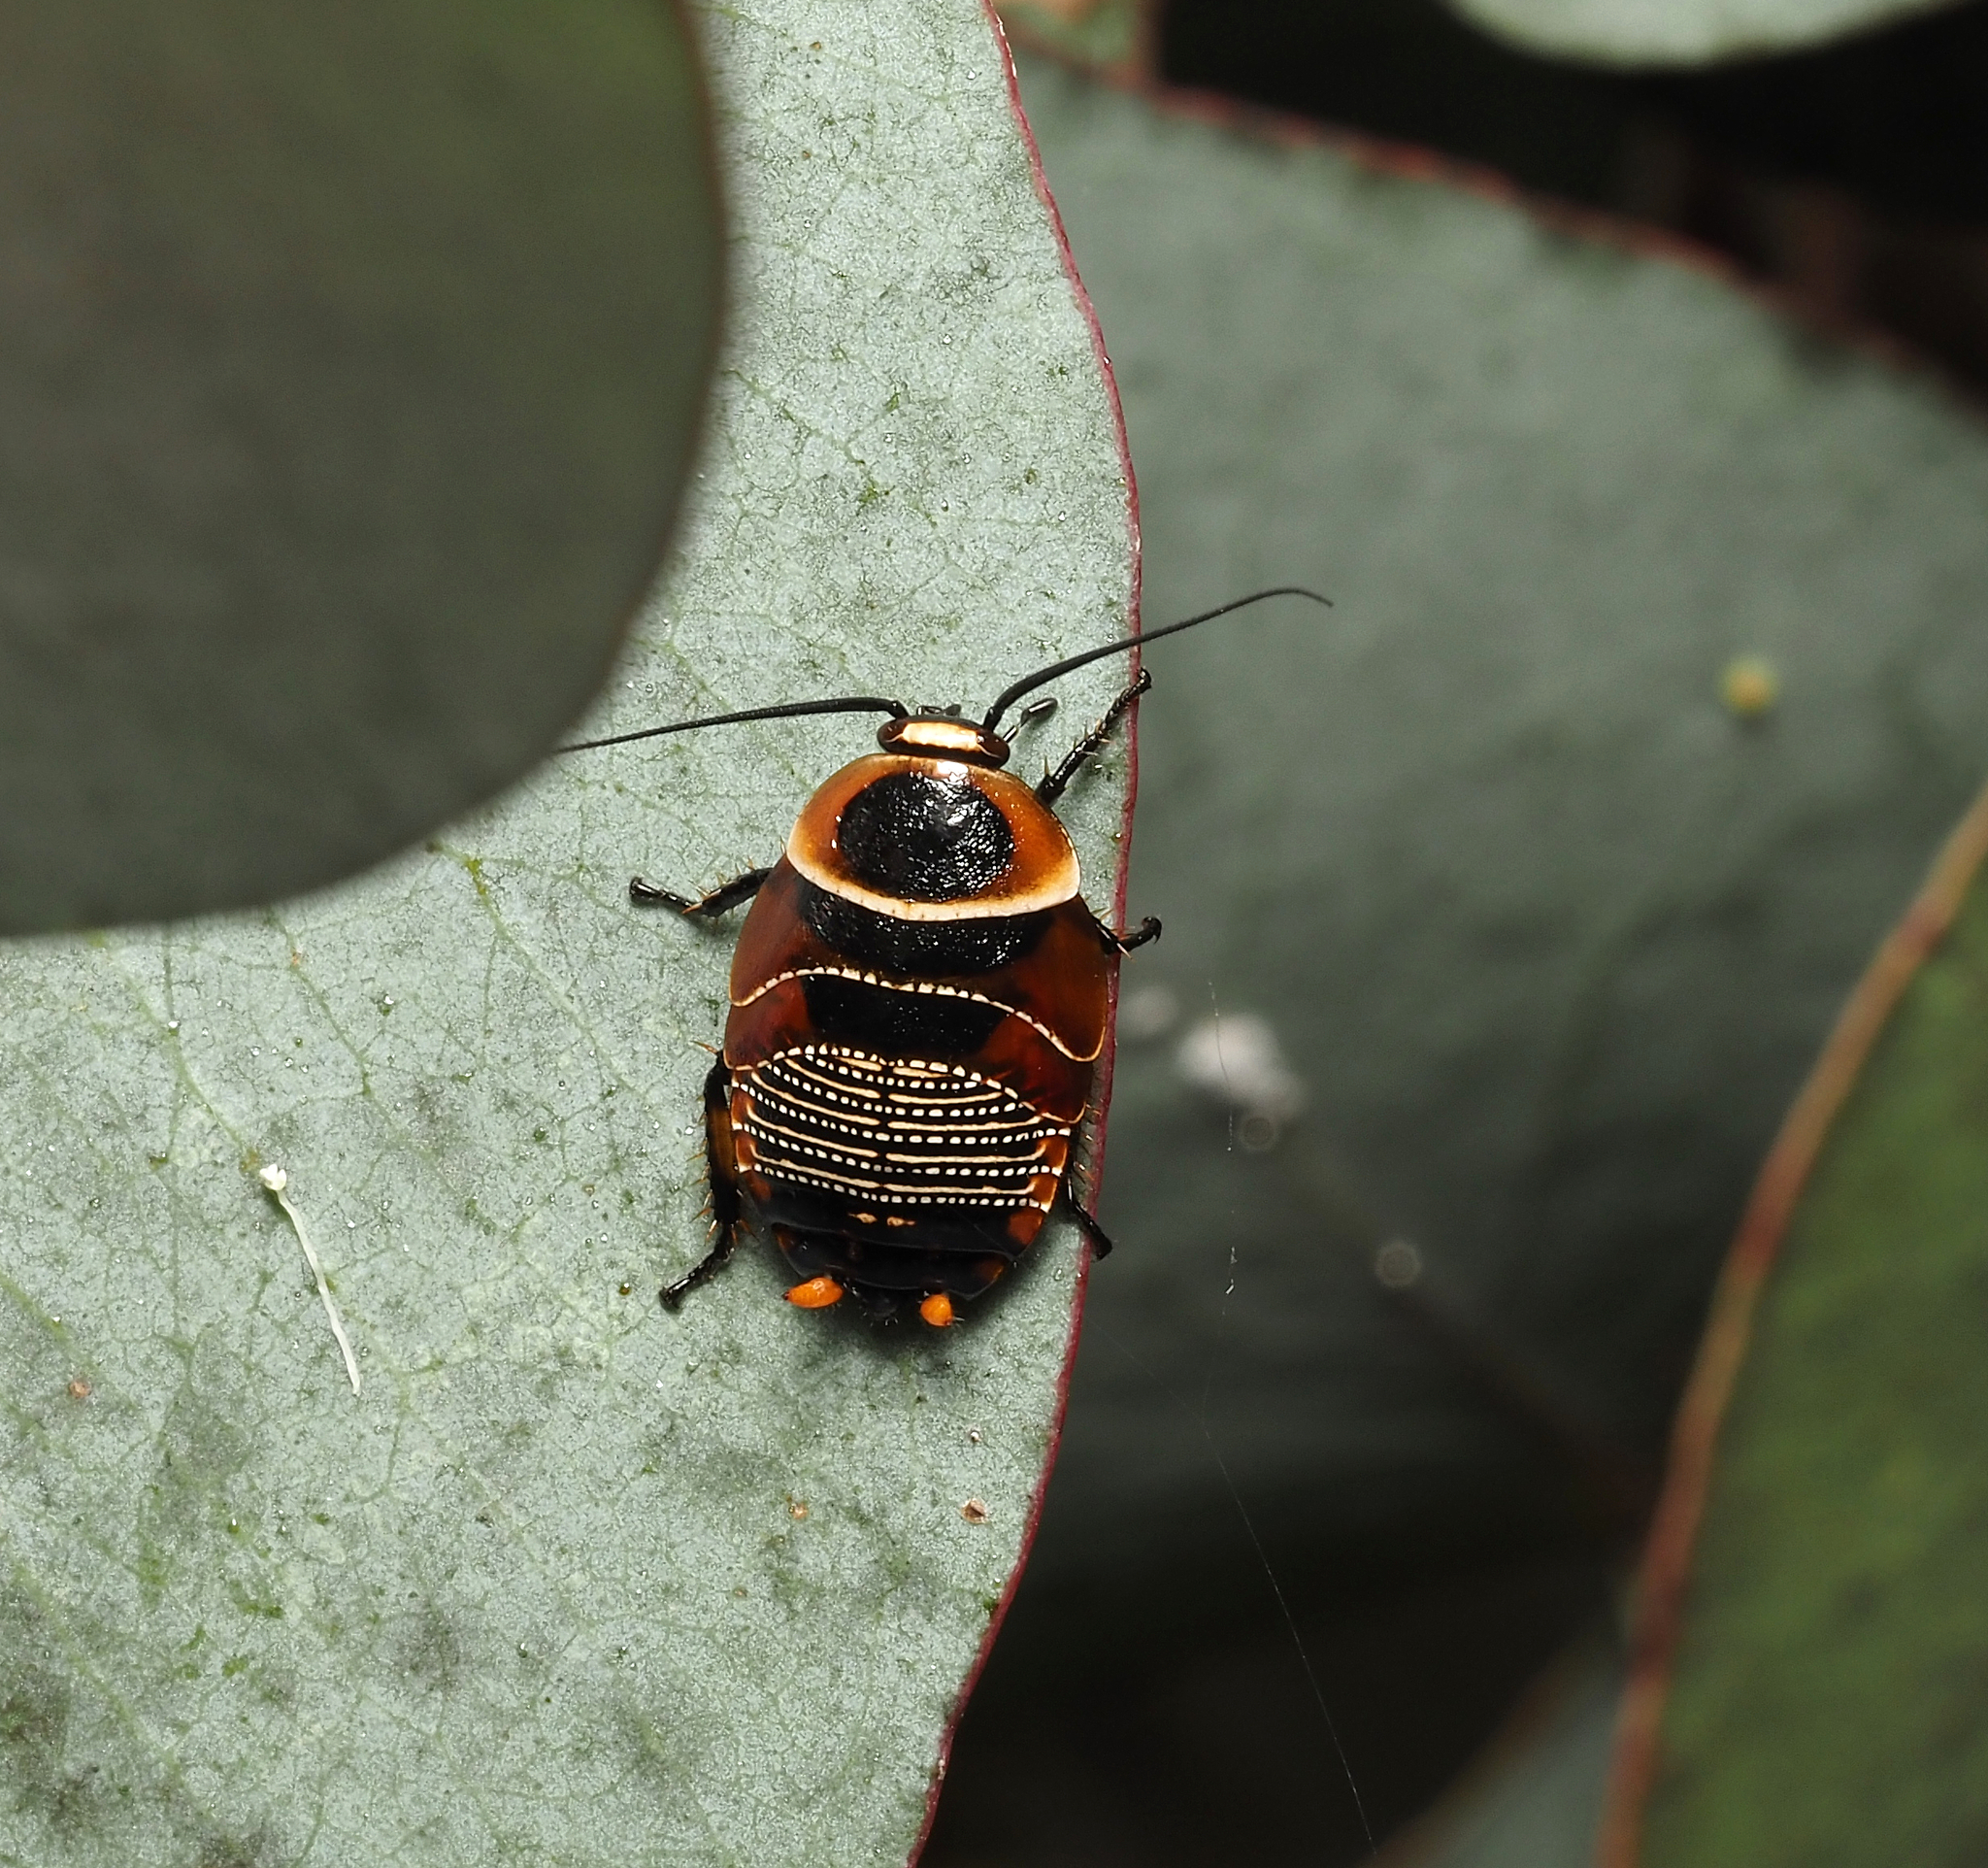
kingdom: Animalia
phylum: Arthropoda
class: Insecta
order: Blattodea
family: Ectobiidae
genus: Ellipsidion
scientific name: Ellipsidion australe
